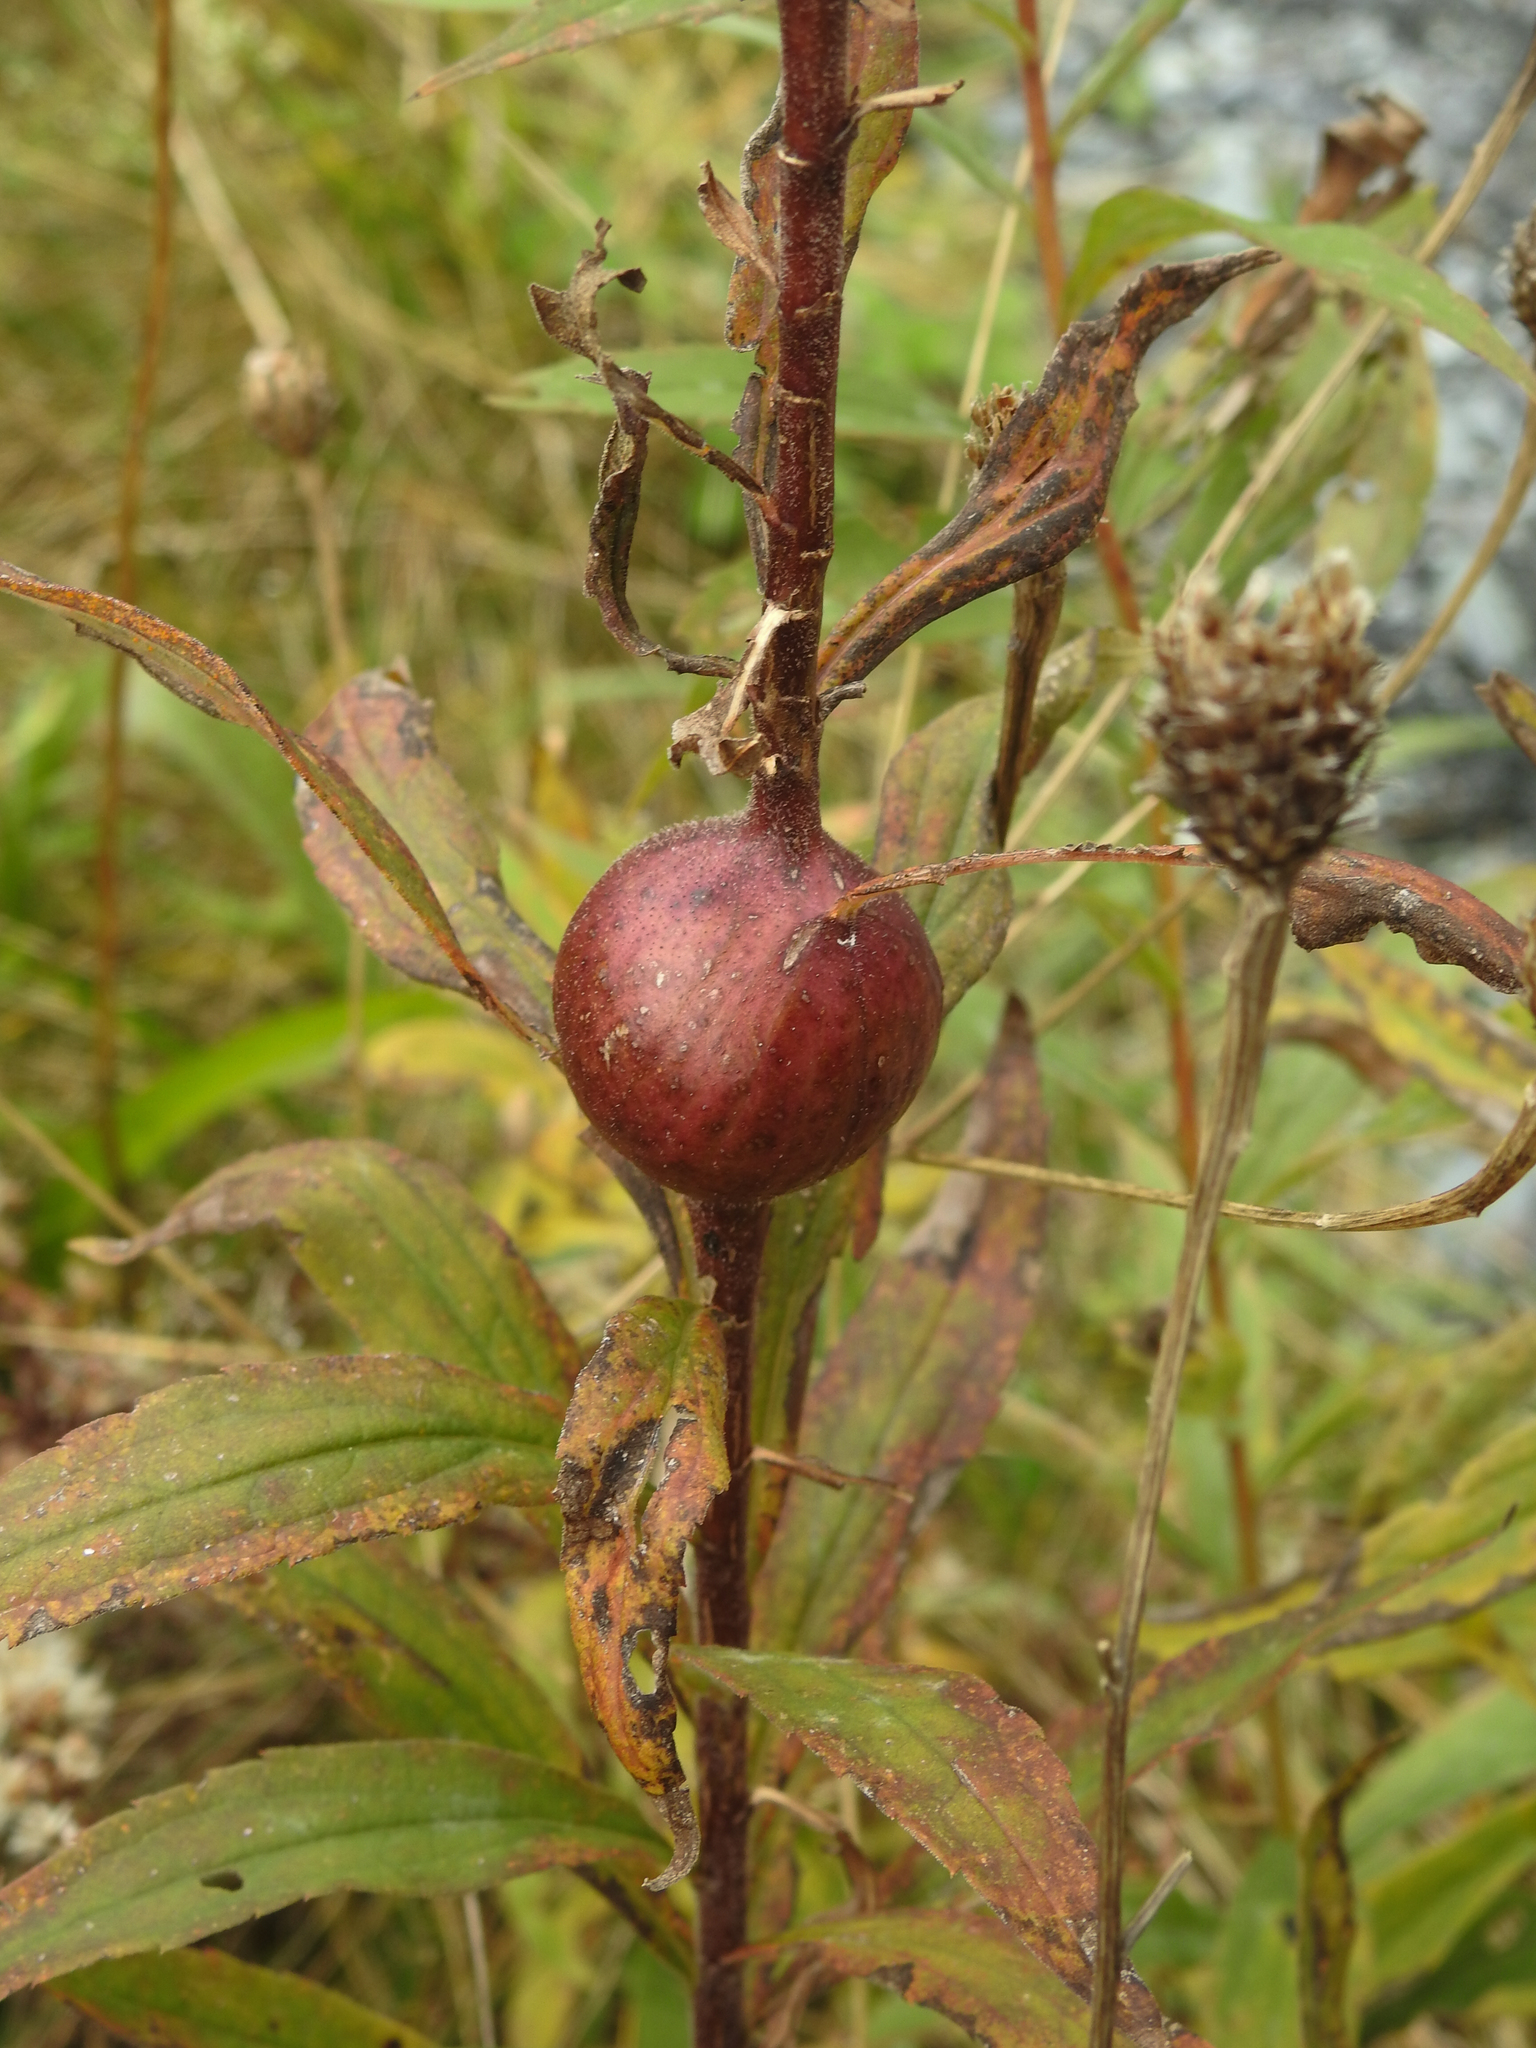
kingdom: Animalia
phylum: Arthropoda
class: Insecta
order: Diptera
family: Tephritidae
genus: Eurosta
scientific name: Eurosta solidaginis
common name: Goldenrod gall fly
